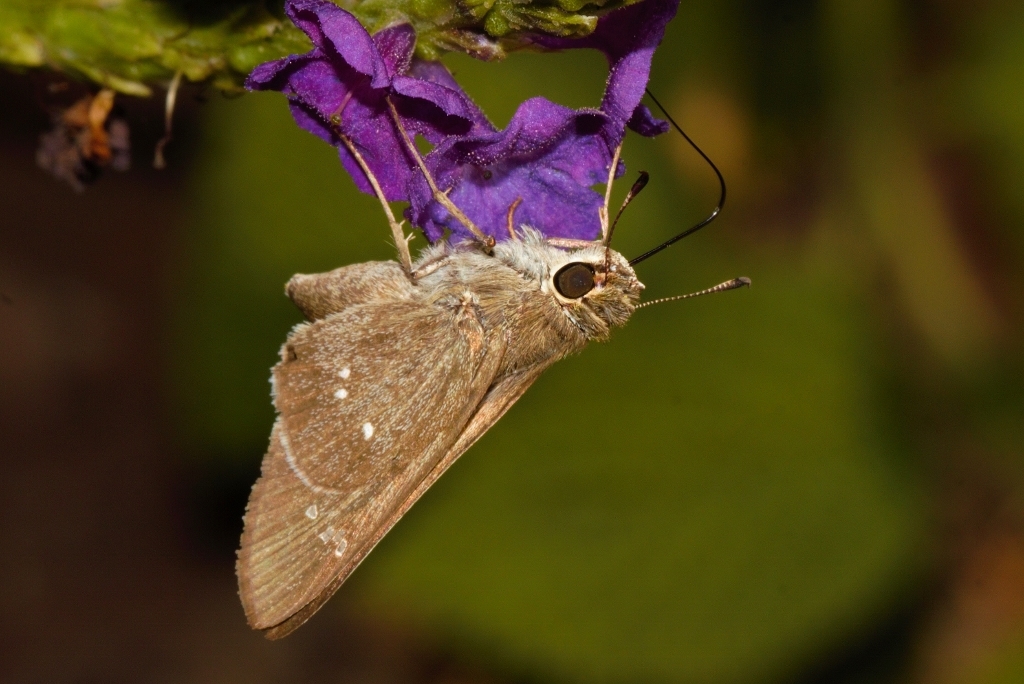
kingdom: Animalia
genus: Torbenlarsenia
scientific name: Torbenlarsenia
